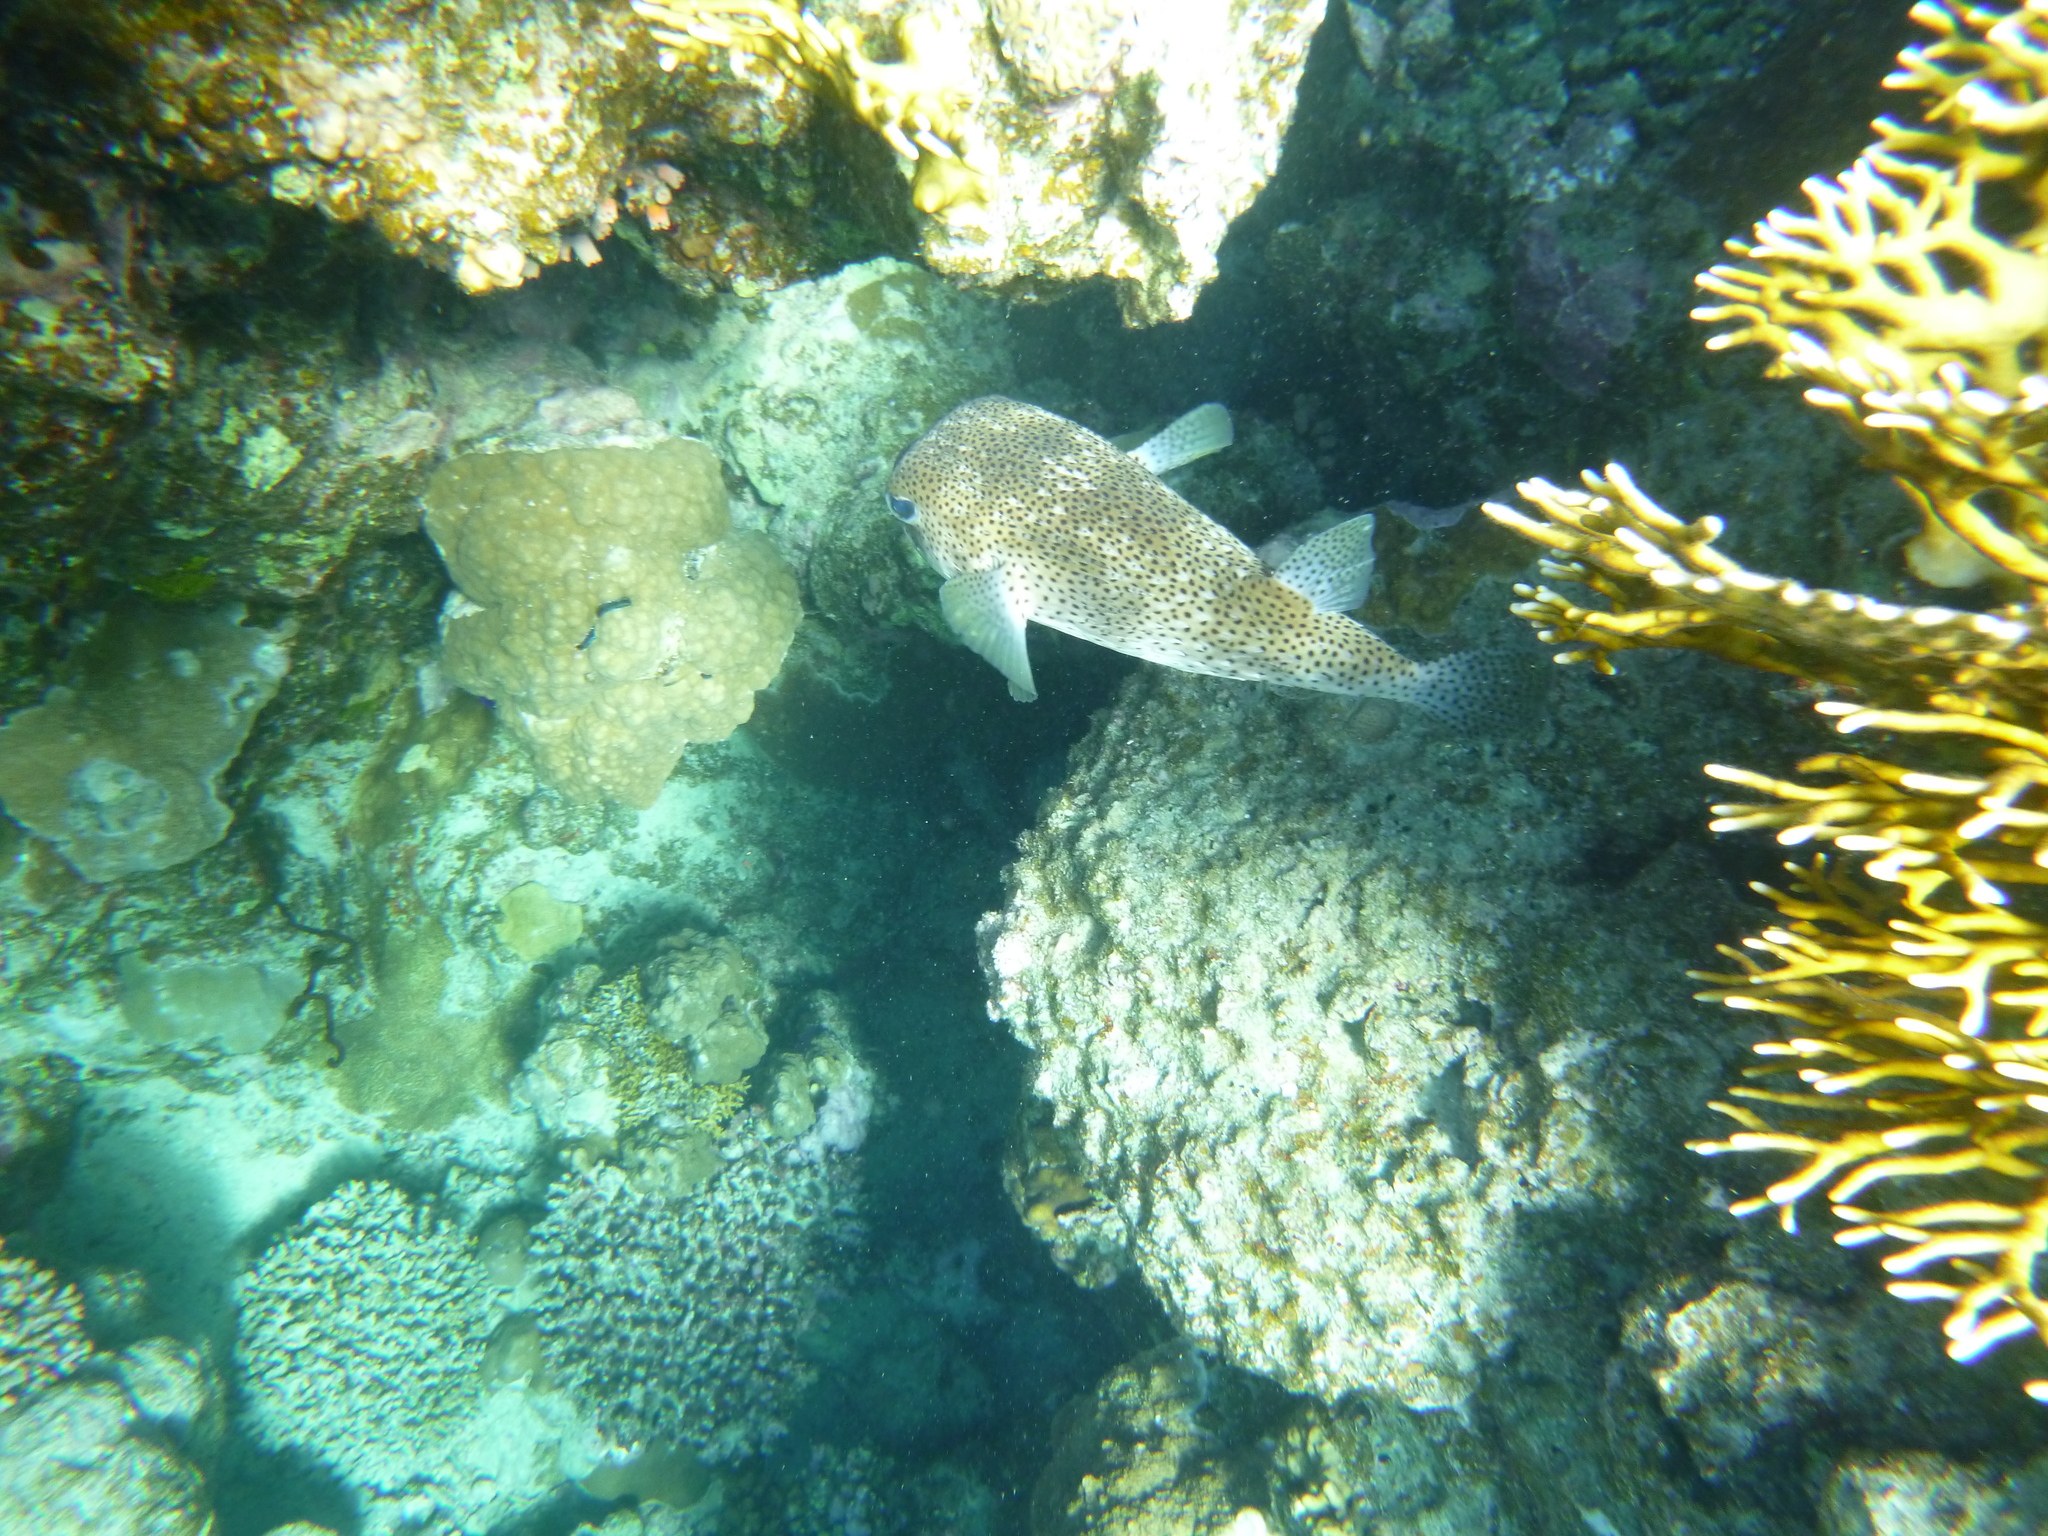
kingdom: Animalia
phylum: Chordata
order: Tetraodontiformes
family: Diodontidae
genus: Diodon
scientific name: Diodon hystrix
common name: Giant porcupinefish
